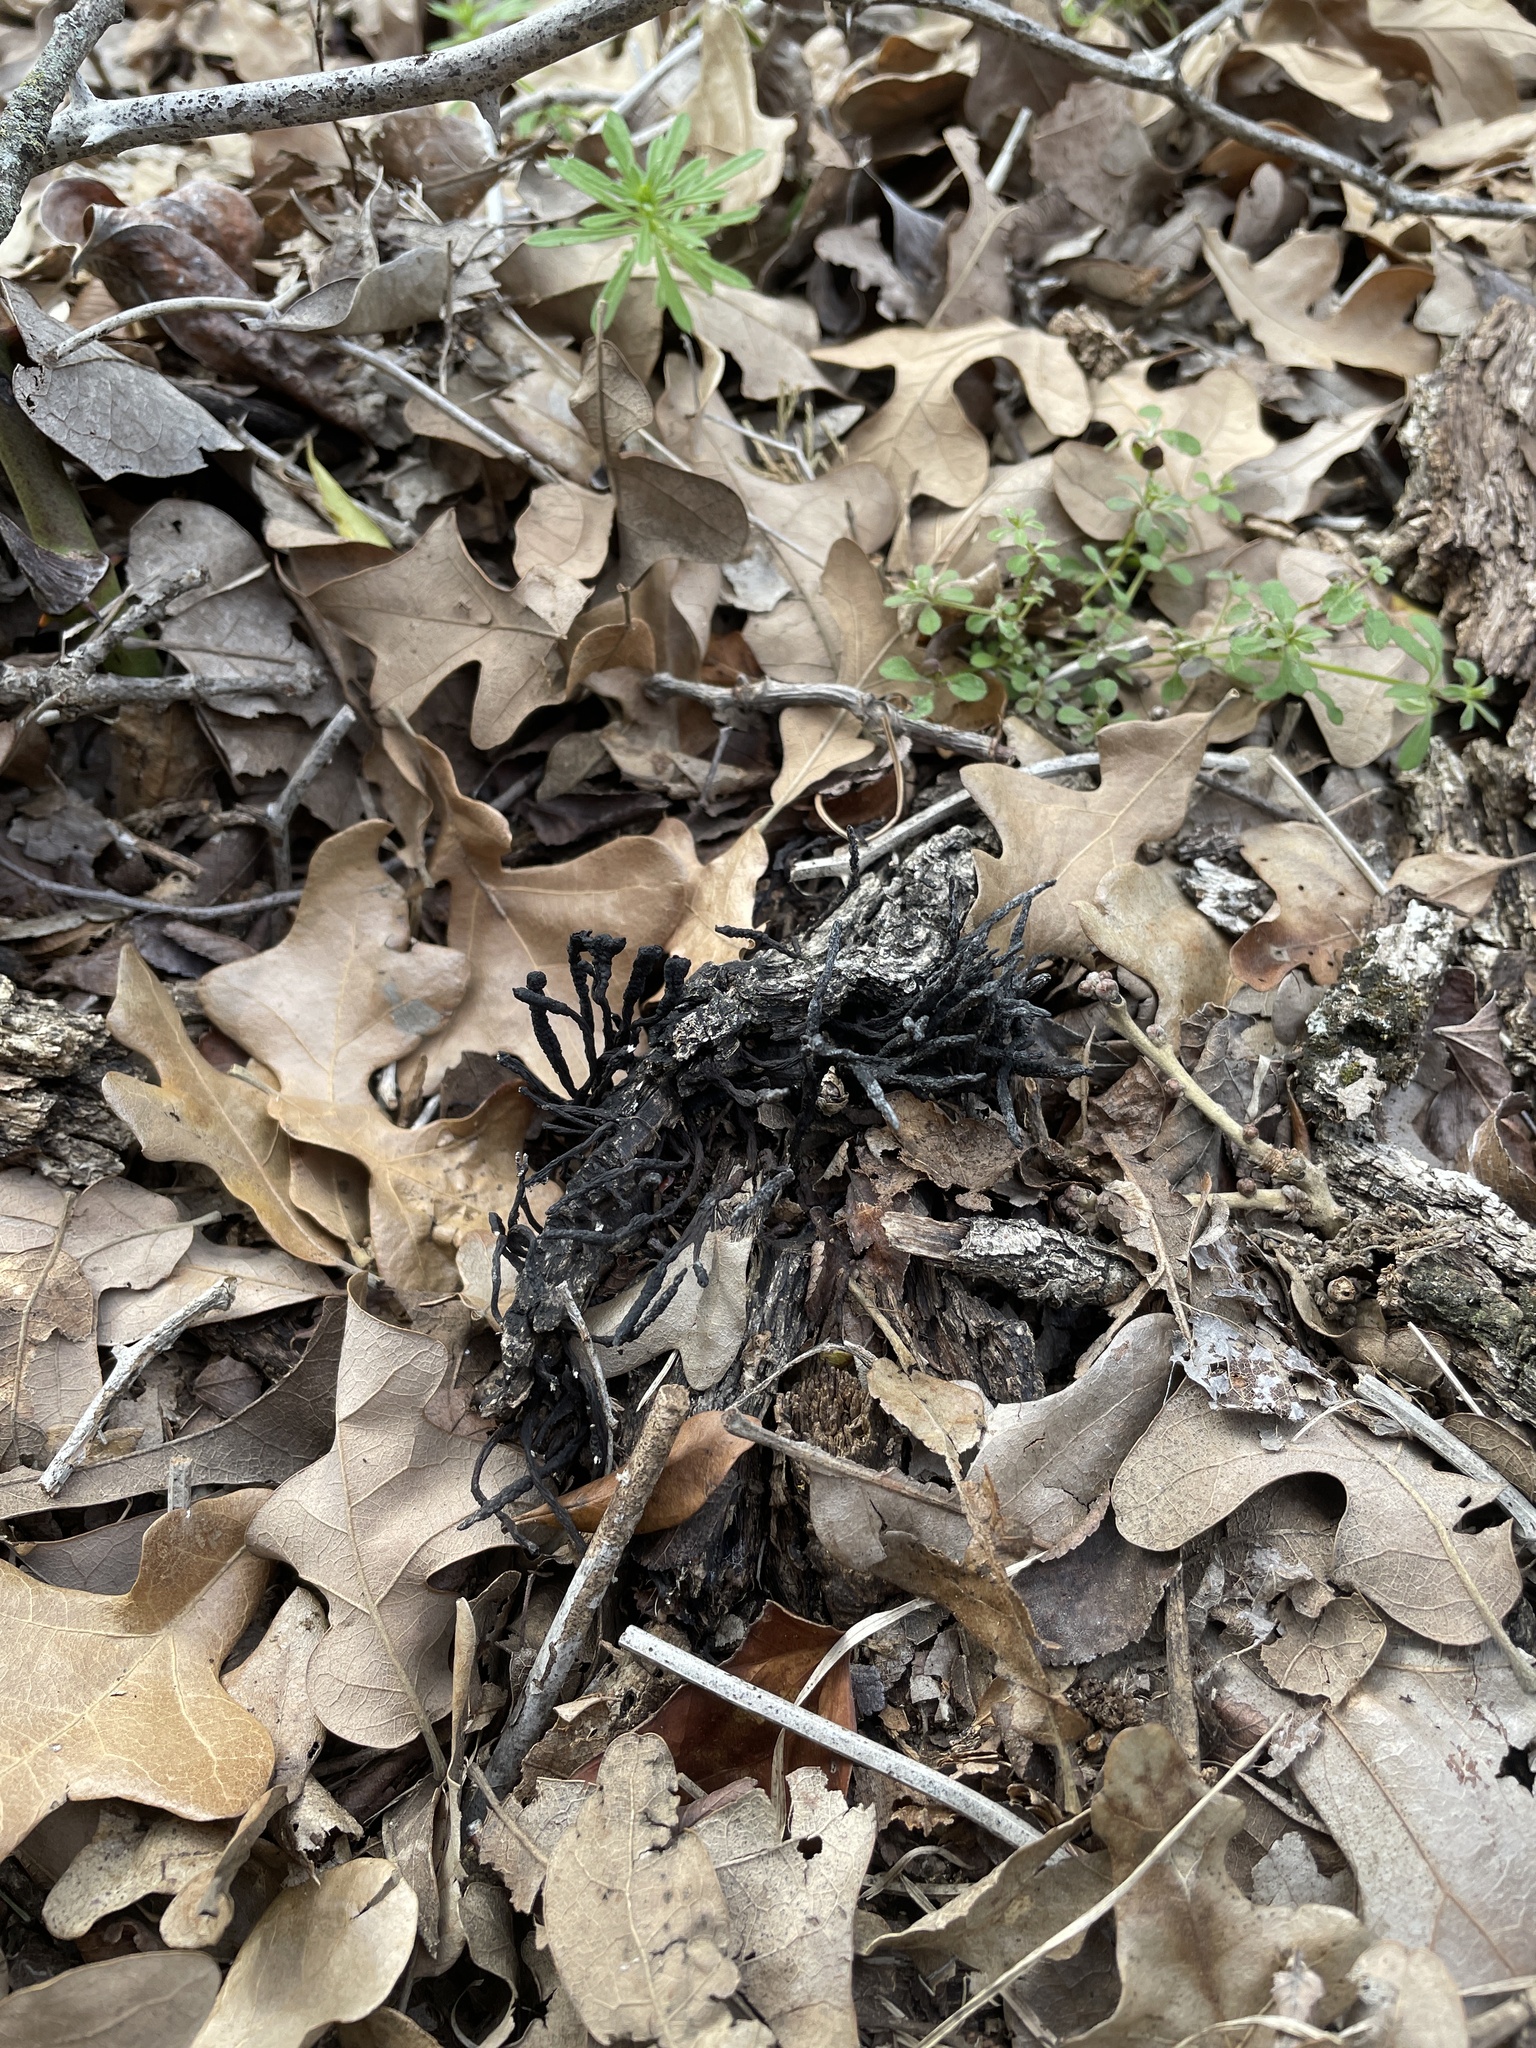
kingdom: Fungi
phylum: Ascomycota
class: Sordariomycetes
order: Xylariales
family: Xylariaceae
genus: Xylaria
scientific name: Xylaria
